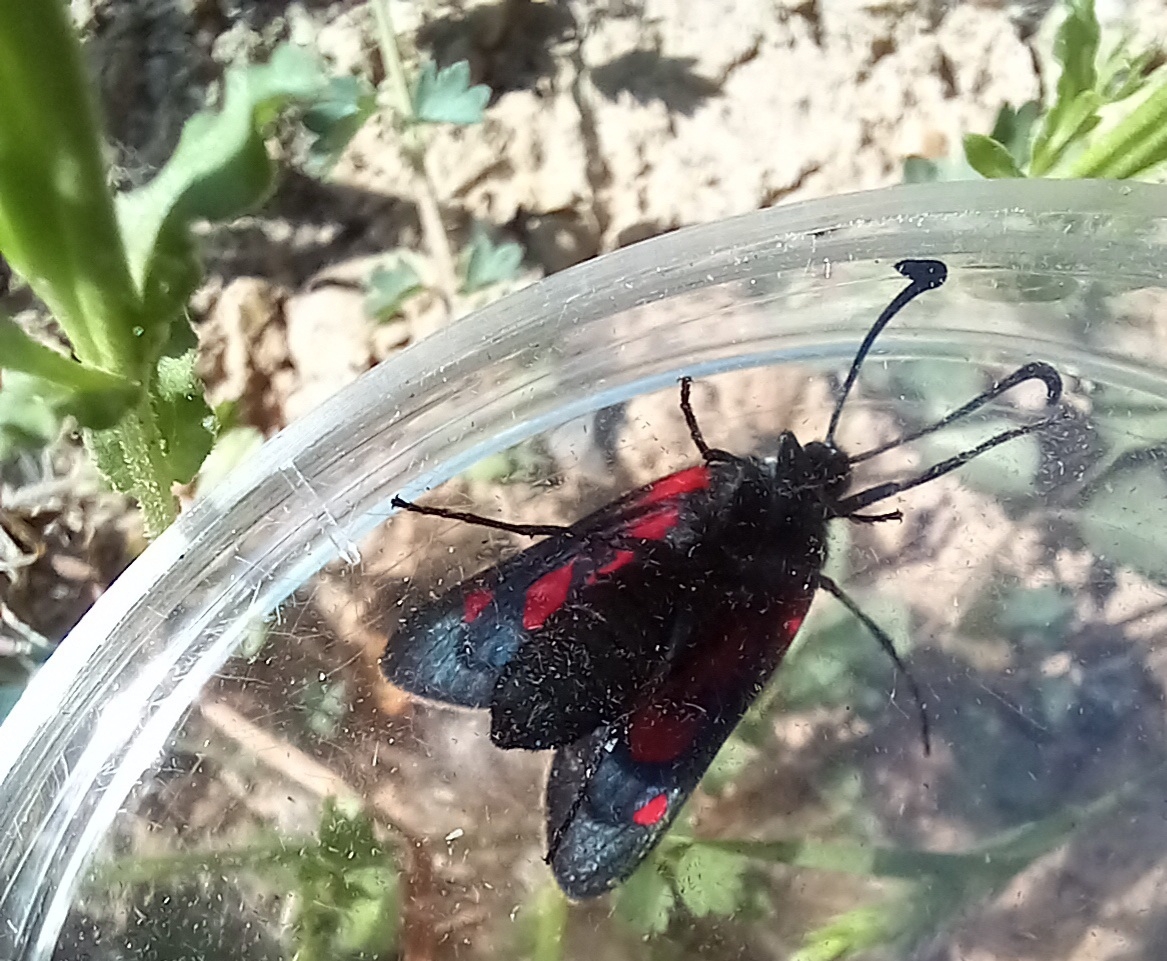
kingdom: Animalia
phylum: Arthropoda
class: Insecta
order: Lepidoptera
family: Zygaenidae
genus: Zygaena
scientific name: Zygaena lavandulae
